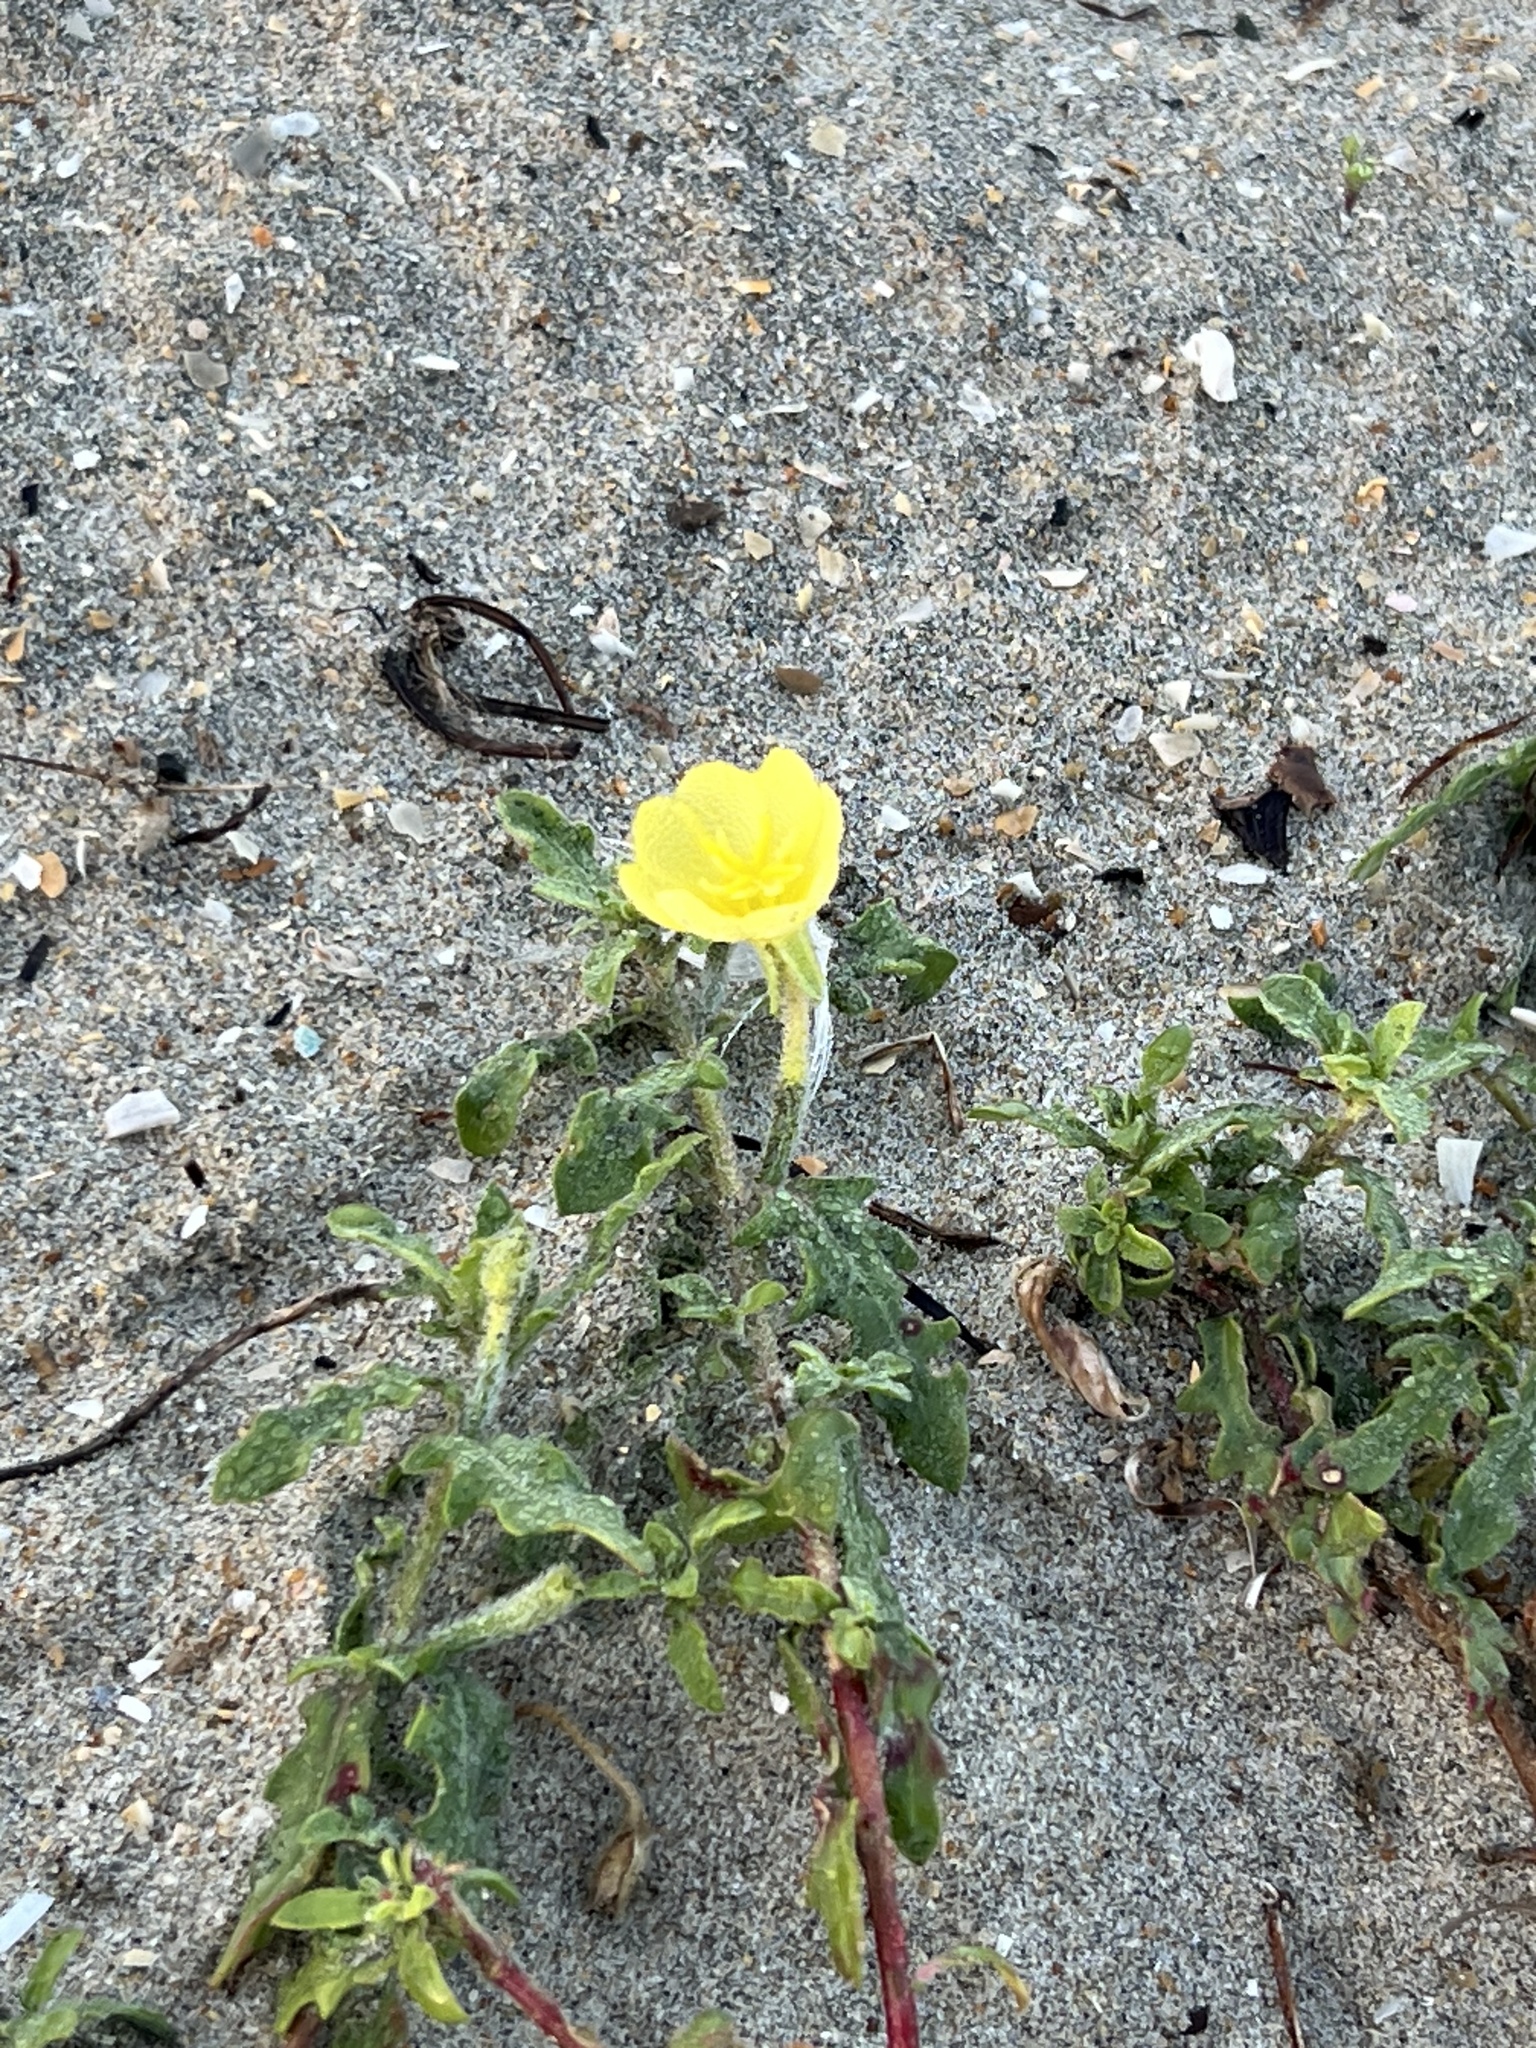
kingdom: Plantae
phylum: Tracheophyta
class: Magnoliopsida
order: Myrtales
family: Onagraceae
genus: Oenothera
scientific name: Oenothera laciniata
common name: Cut-leaved evening-primrose
